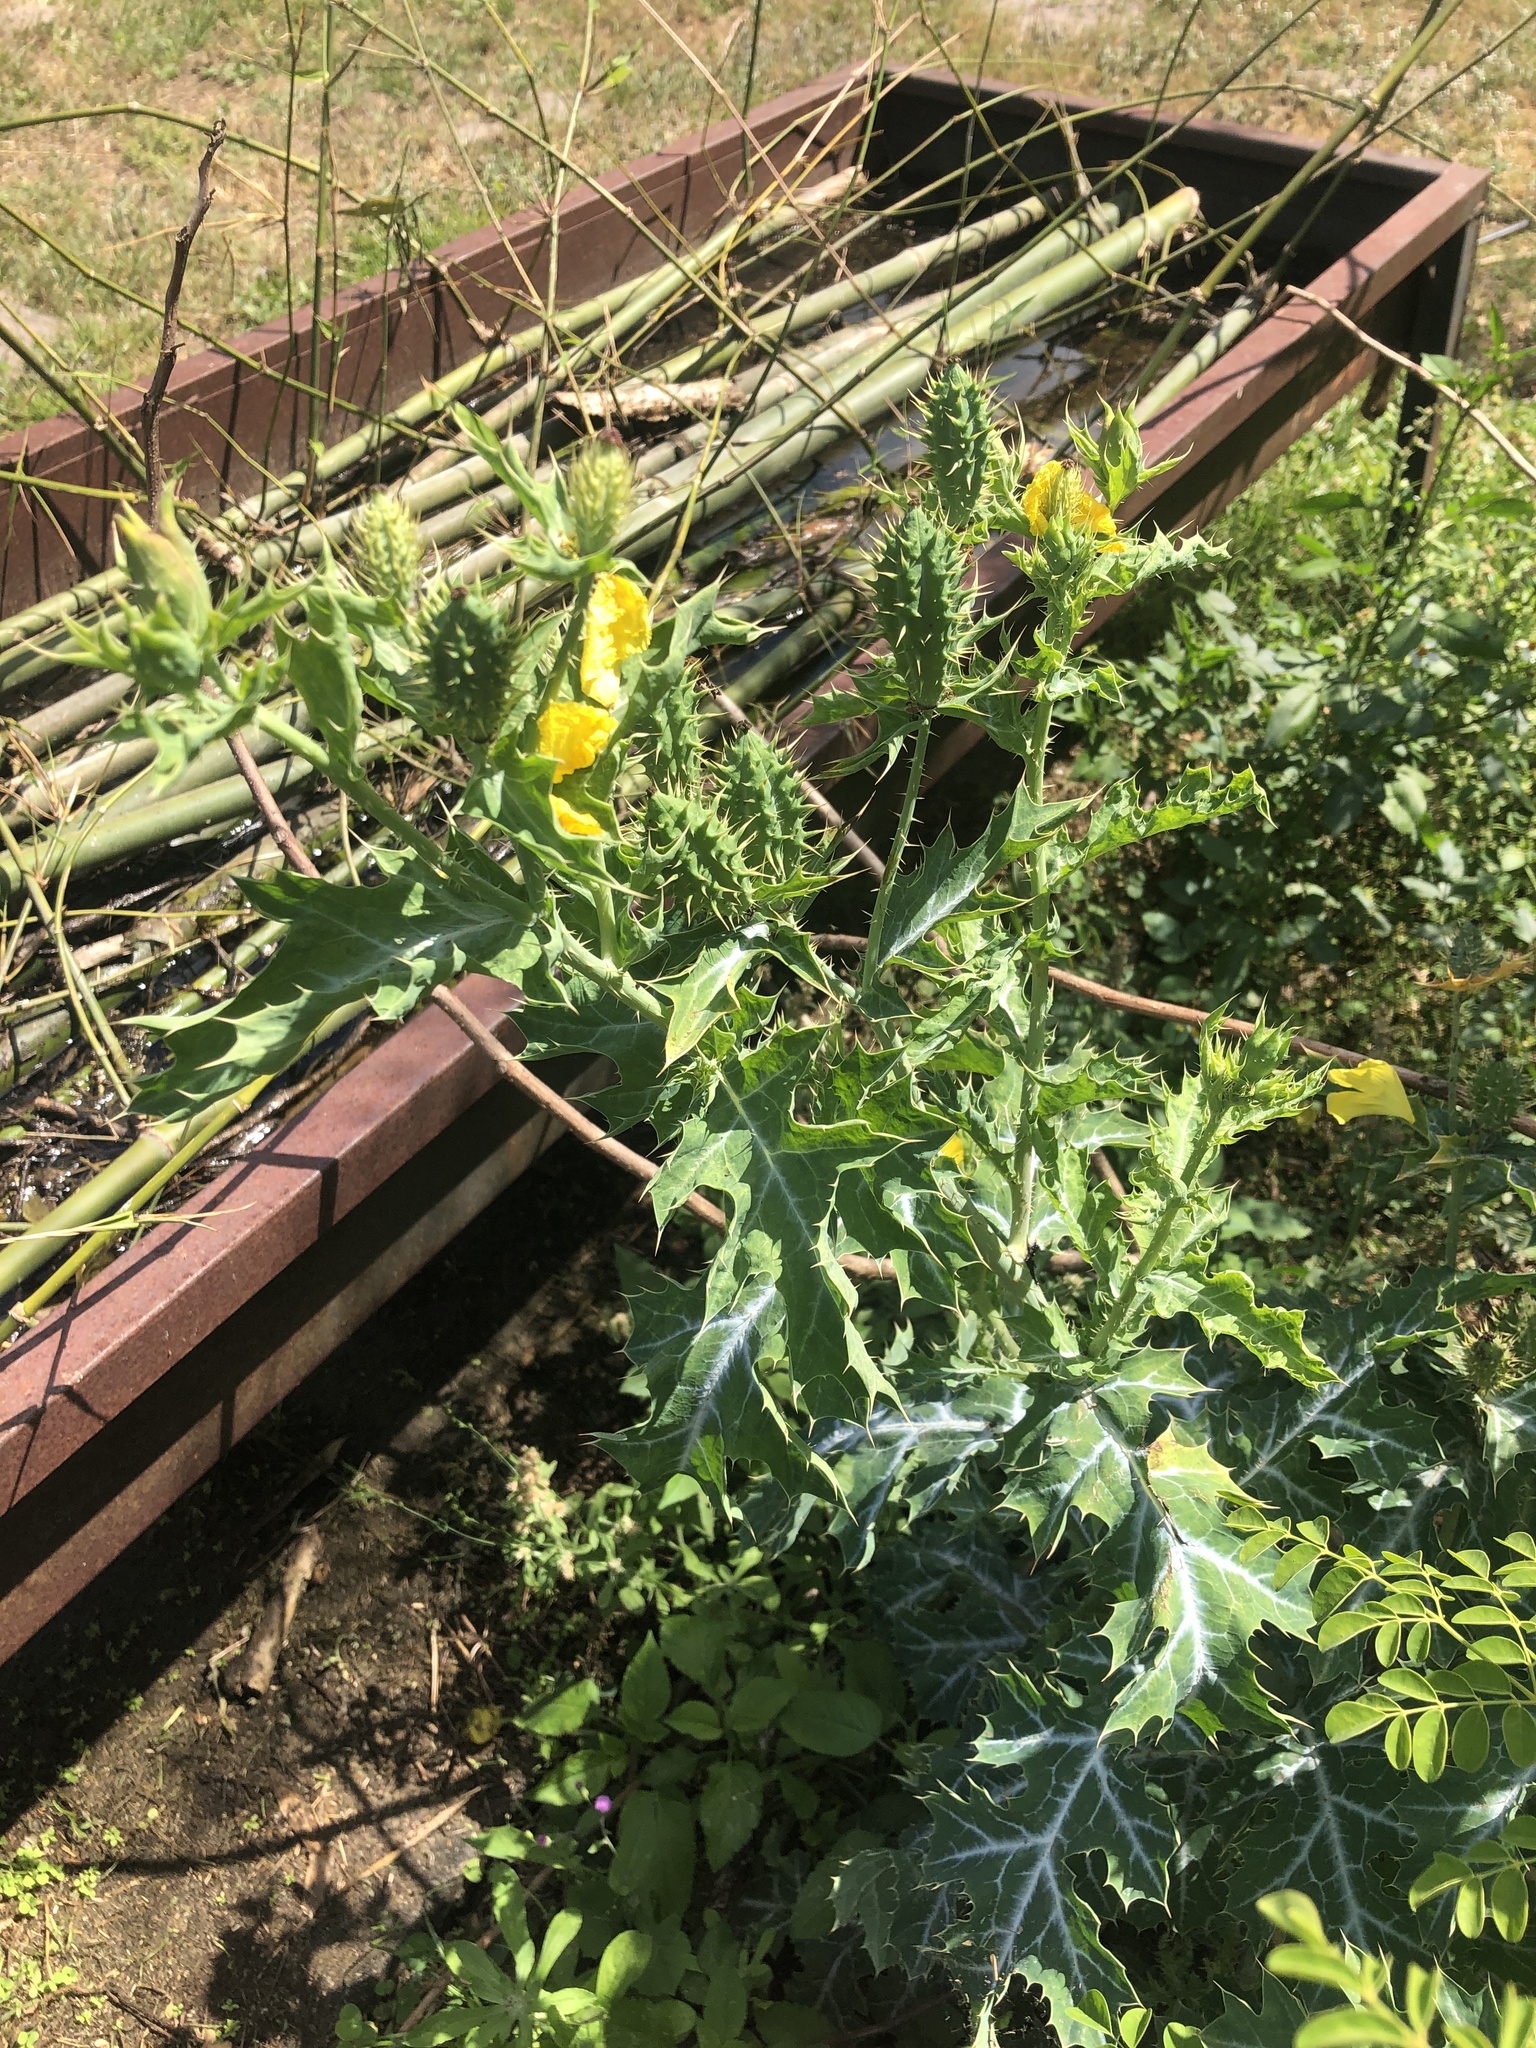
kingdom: Plantae
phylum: Tracheophyta
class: Magnoliopsida
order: Ranunculales
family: Papaveraceae
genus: Argemone
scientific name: Argemone mexicana
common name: Mexican poppy
